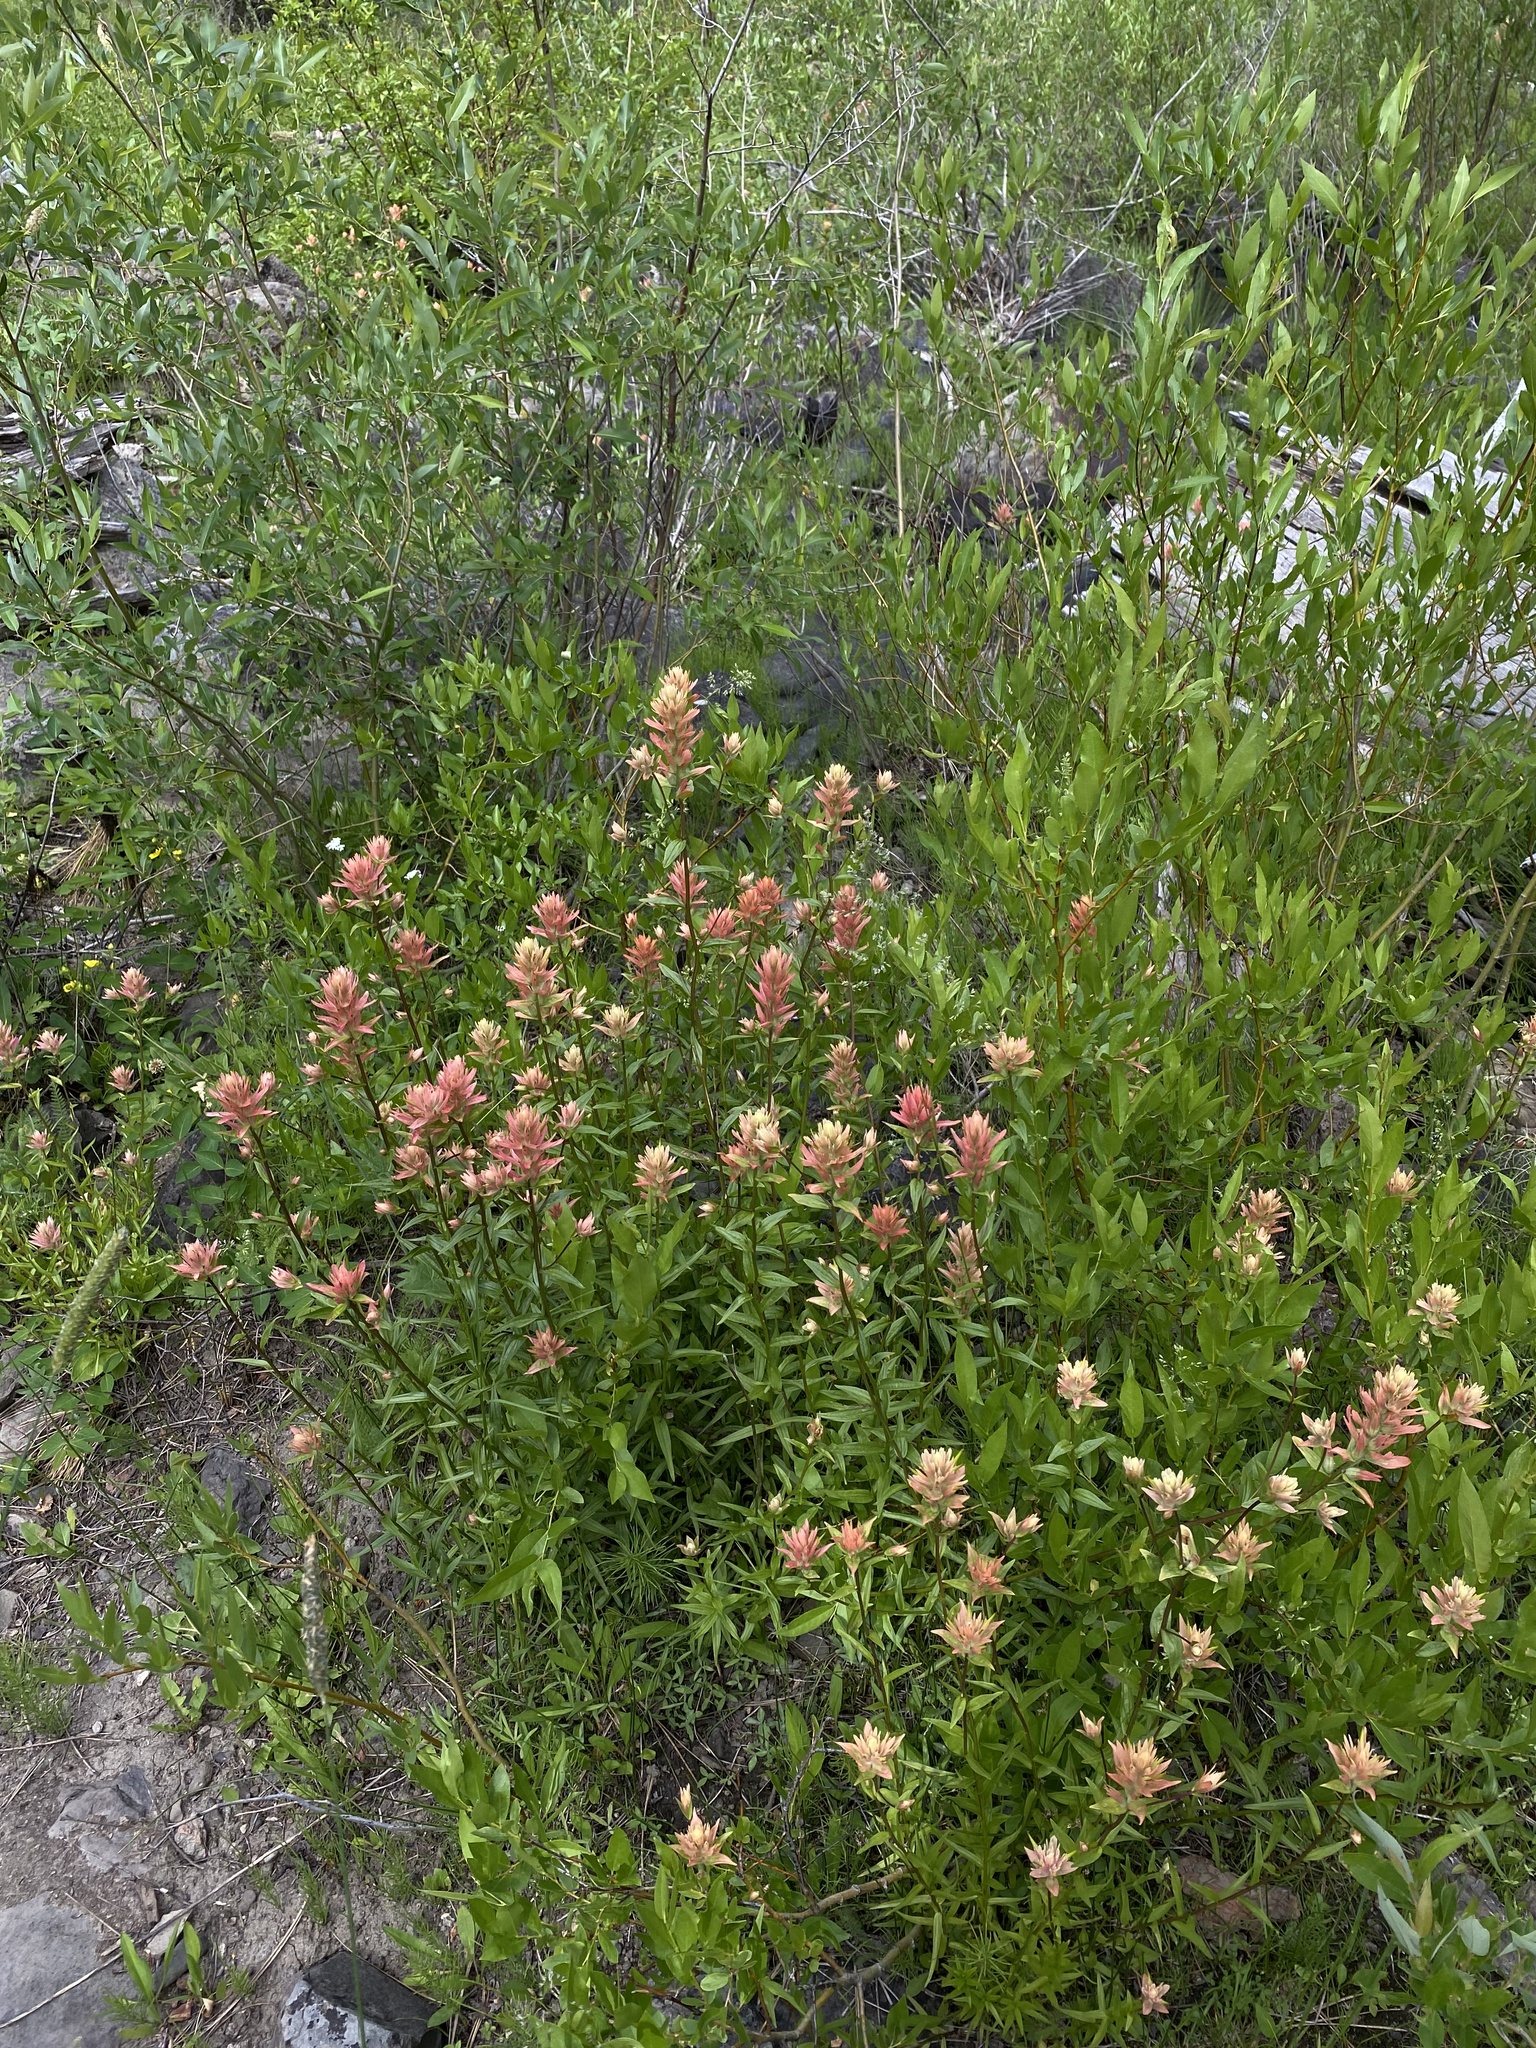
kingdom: Plantae
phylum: Tracheophyta
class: Magnoliopsida
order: Lamiales
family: Orobanchaceae
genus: Castilleja
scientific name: Castilleja miniata
